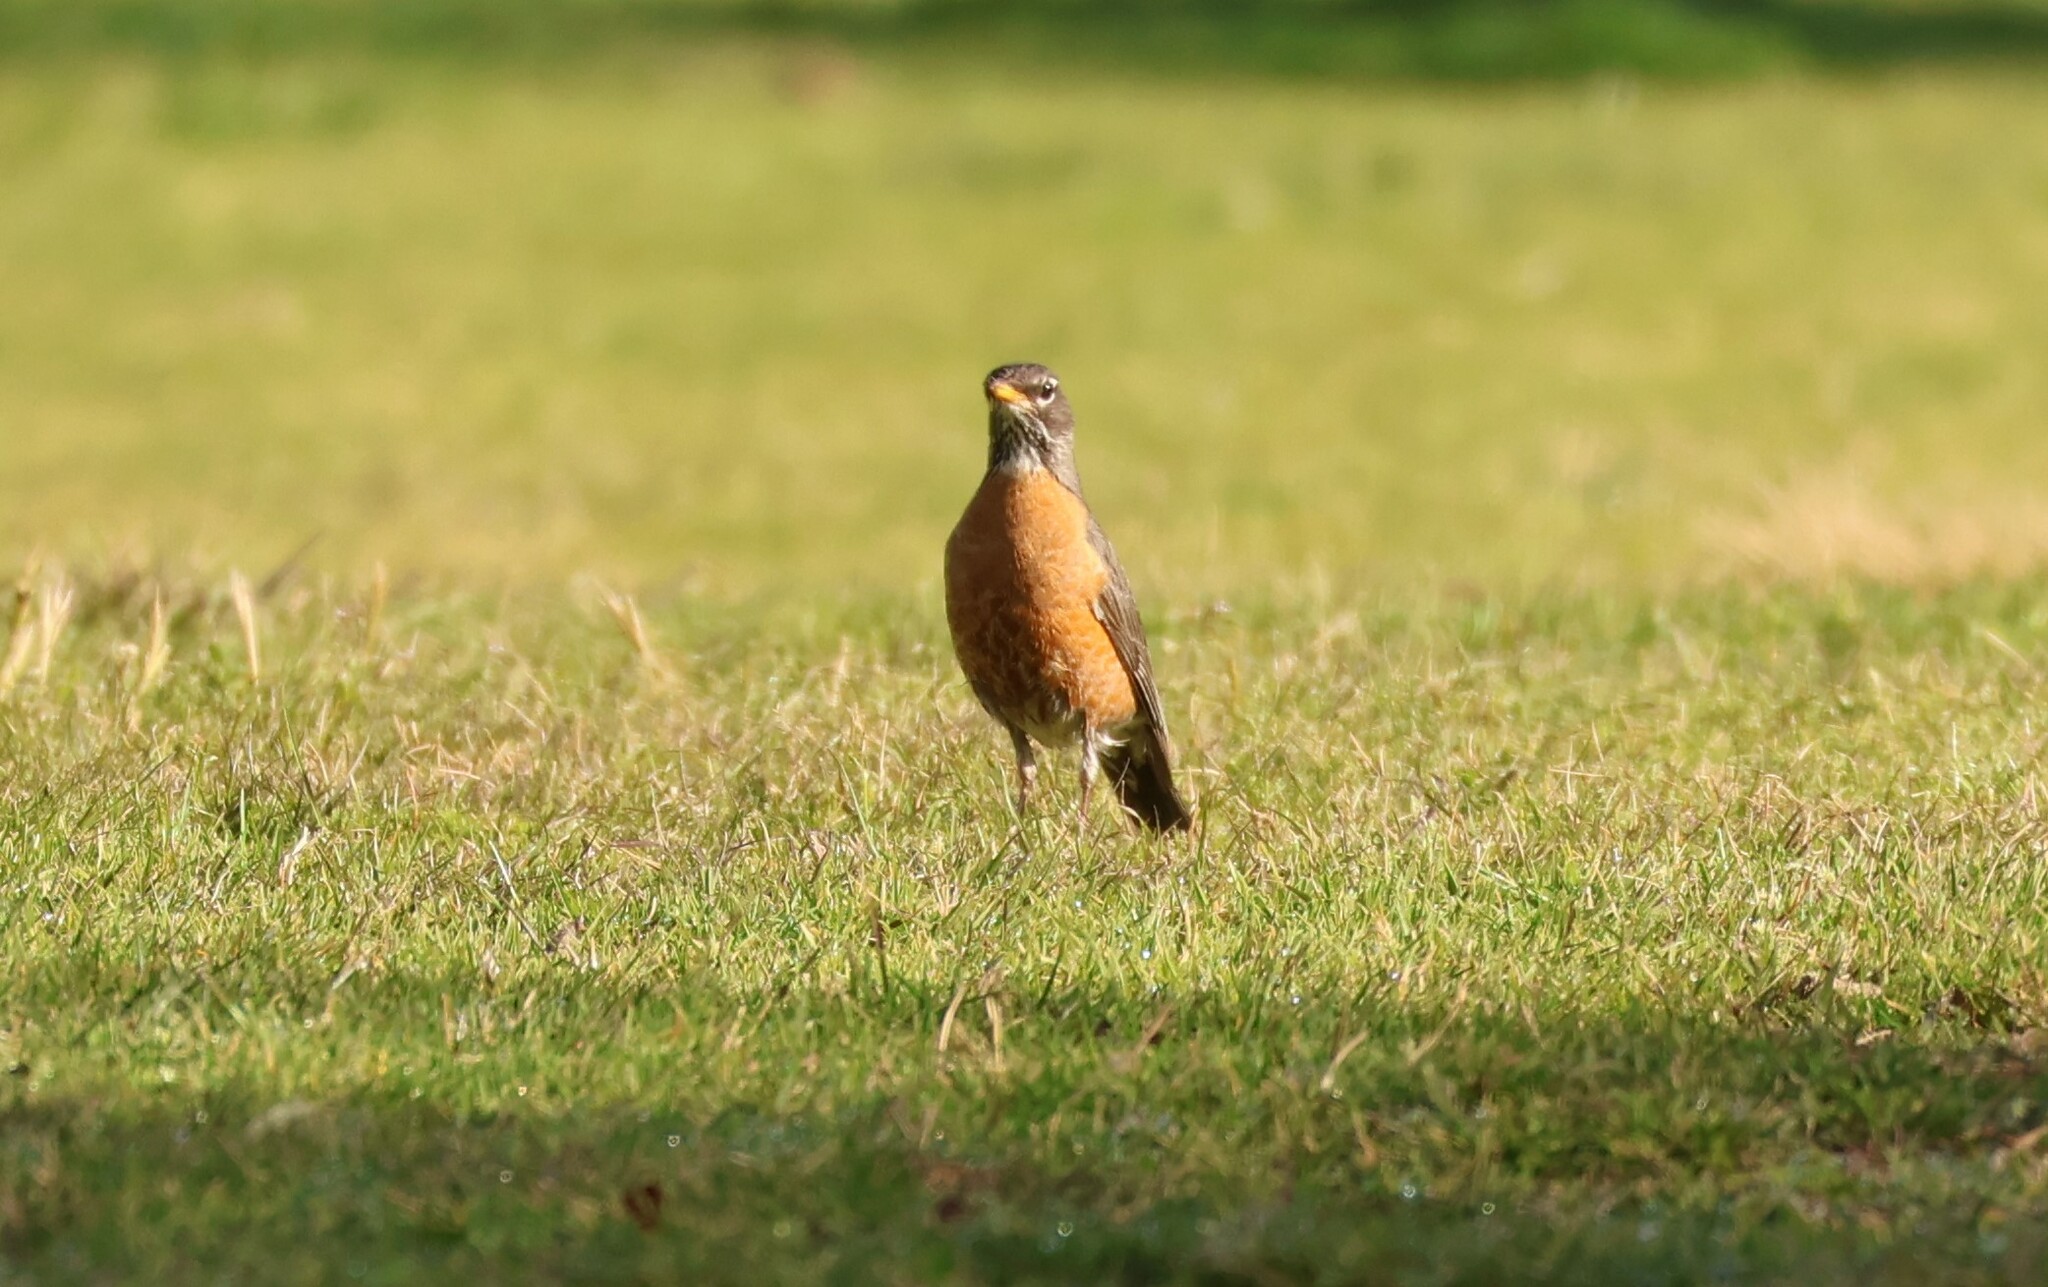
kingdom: Animalia
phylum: Chordata
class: Aves
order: Passeriformes
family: Turdidae
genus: Turdus
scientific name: Turdus migratorius
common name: American robin
